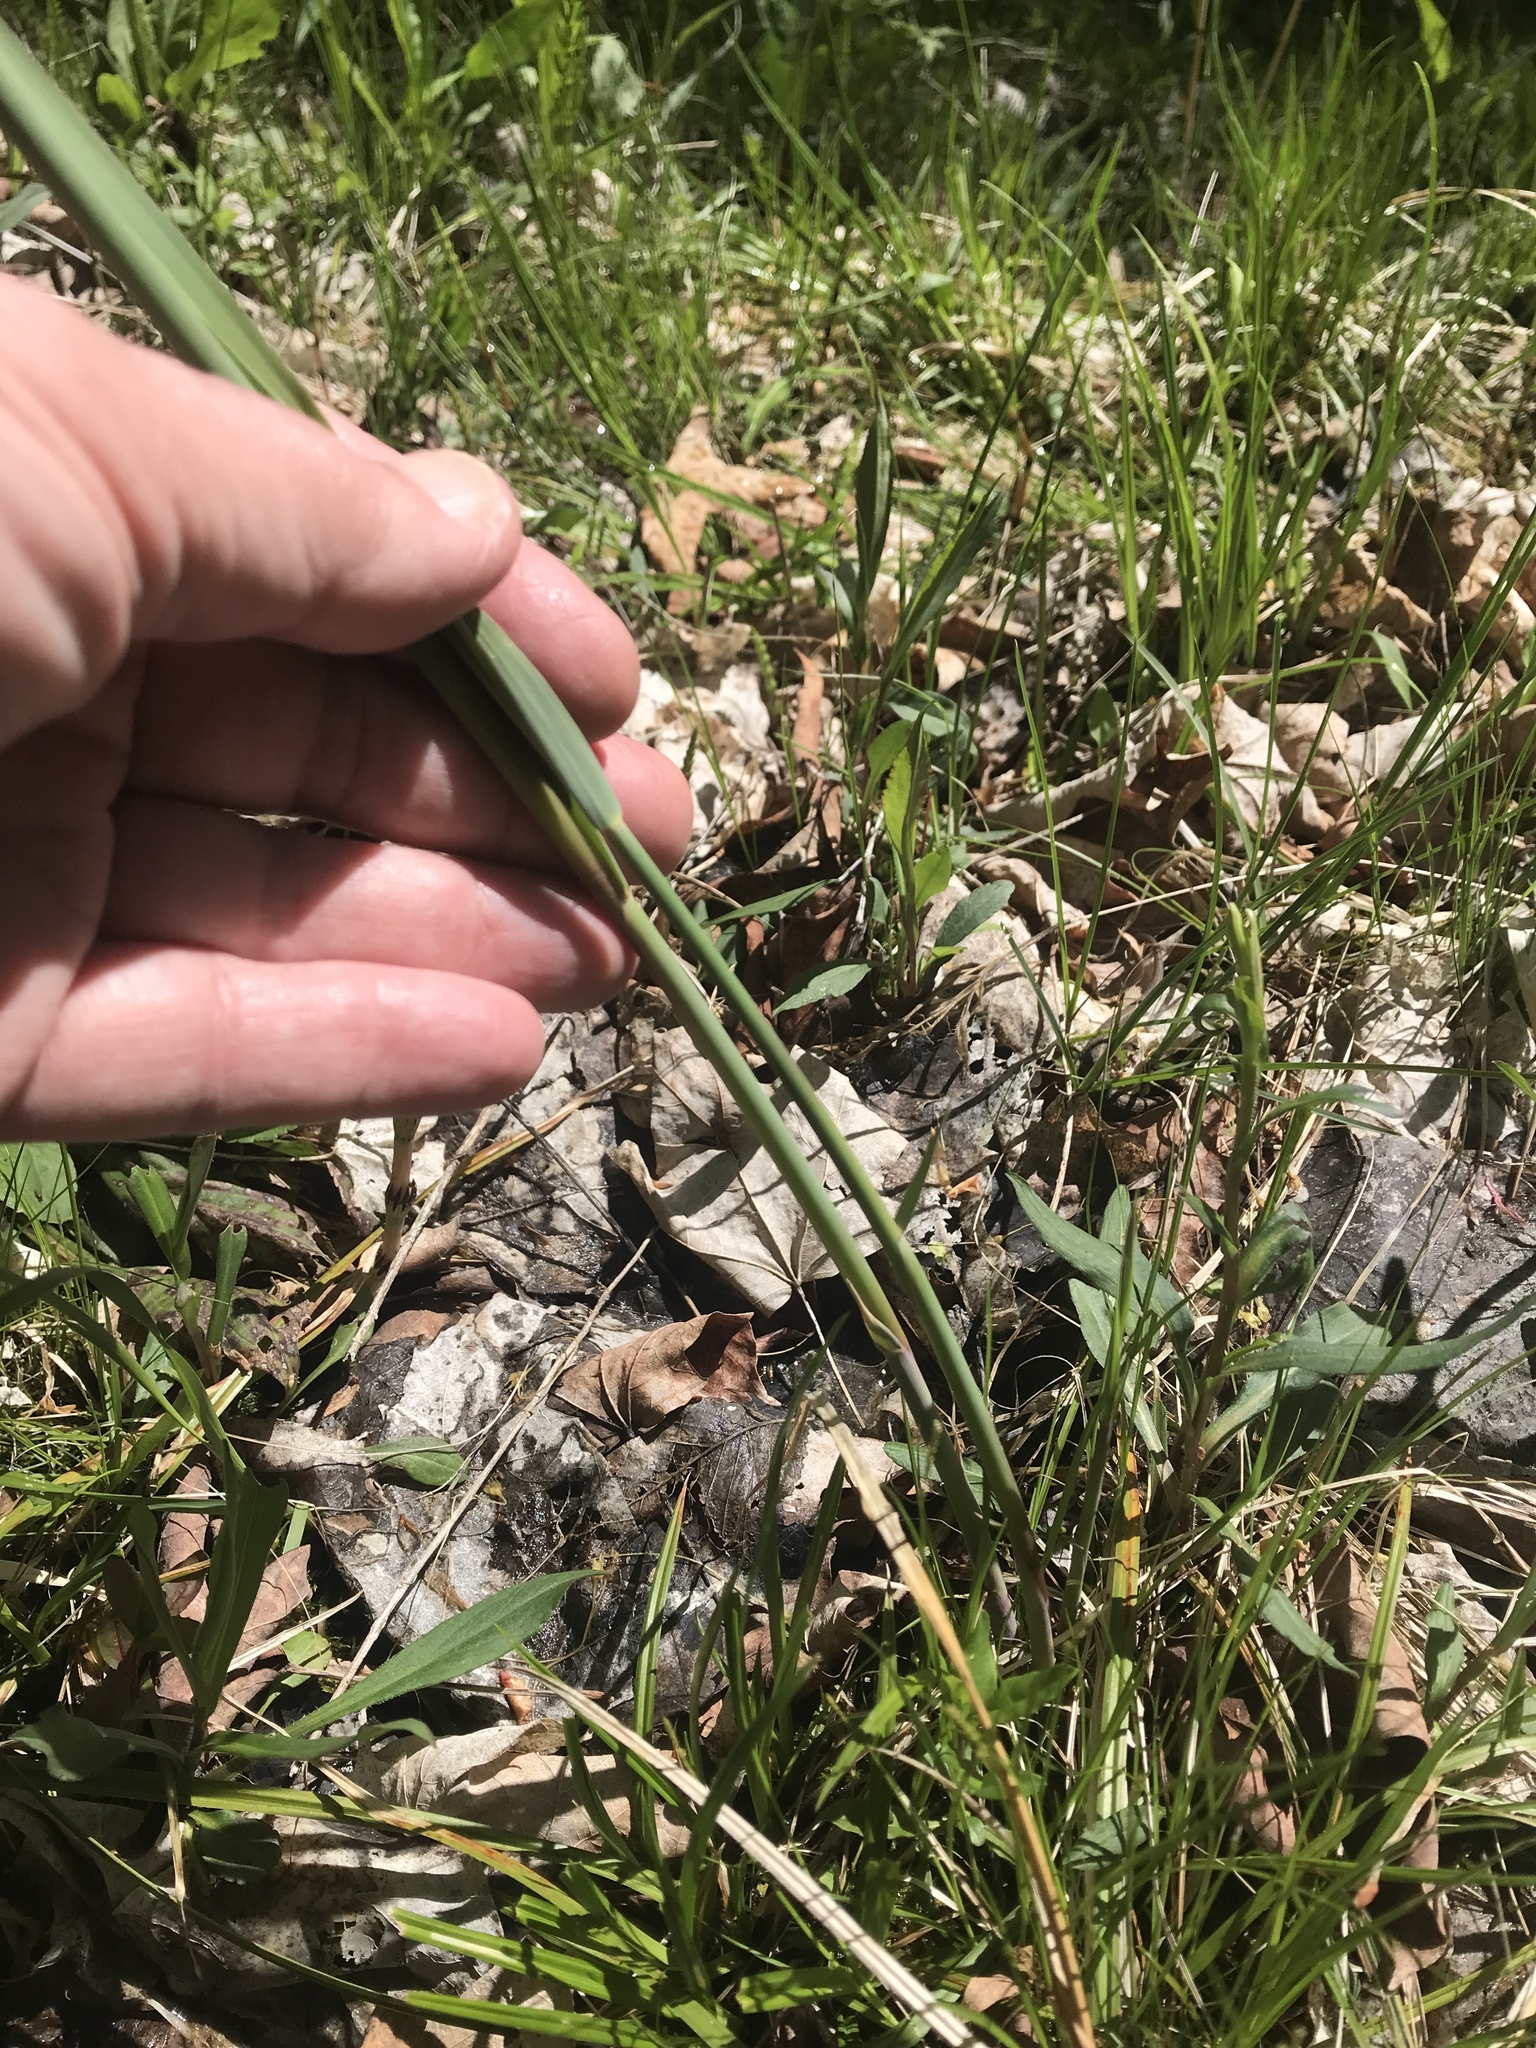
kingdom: Plantae
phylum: Tracheophyta
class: Liliopsida
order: Poales
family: Poaceae
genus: Phragmites
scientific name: Phragmites australis
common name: Common reed
